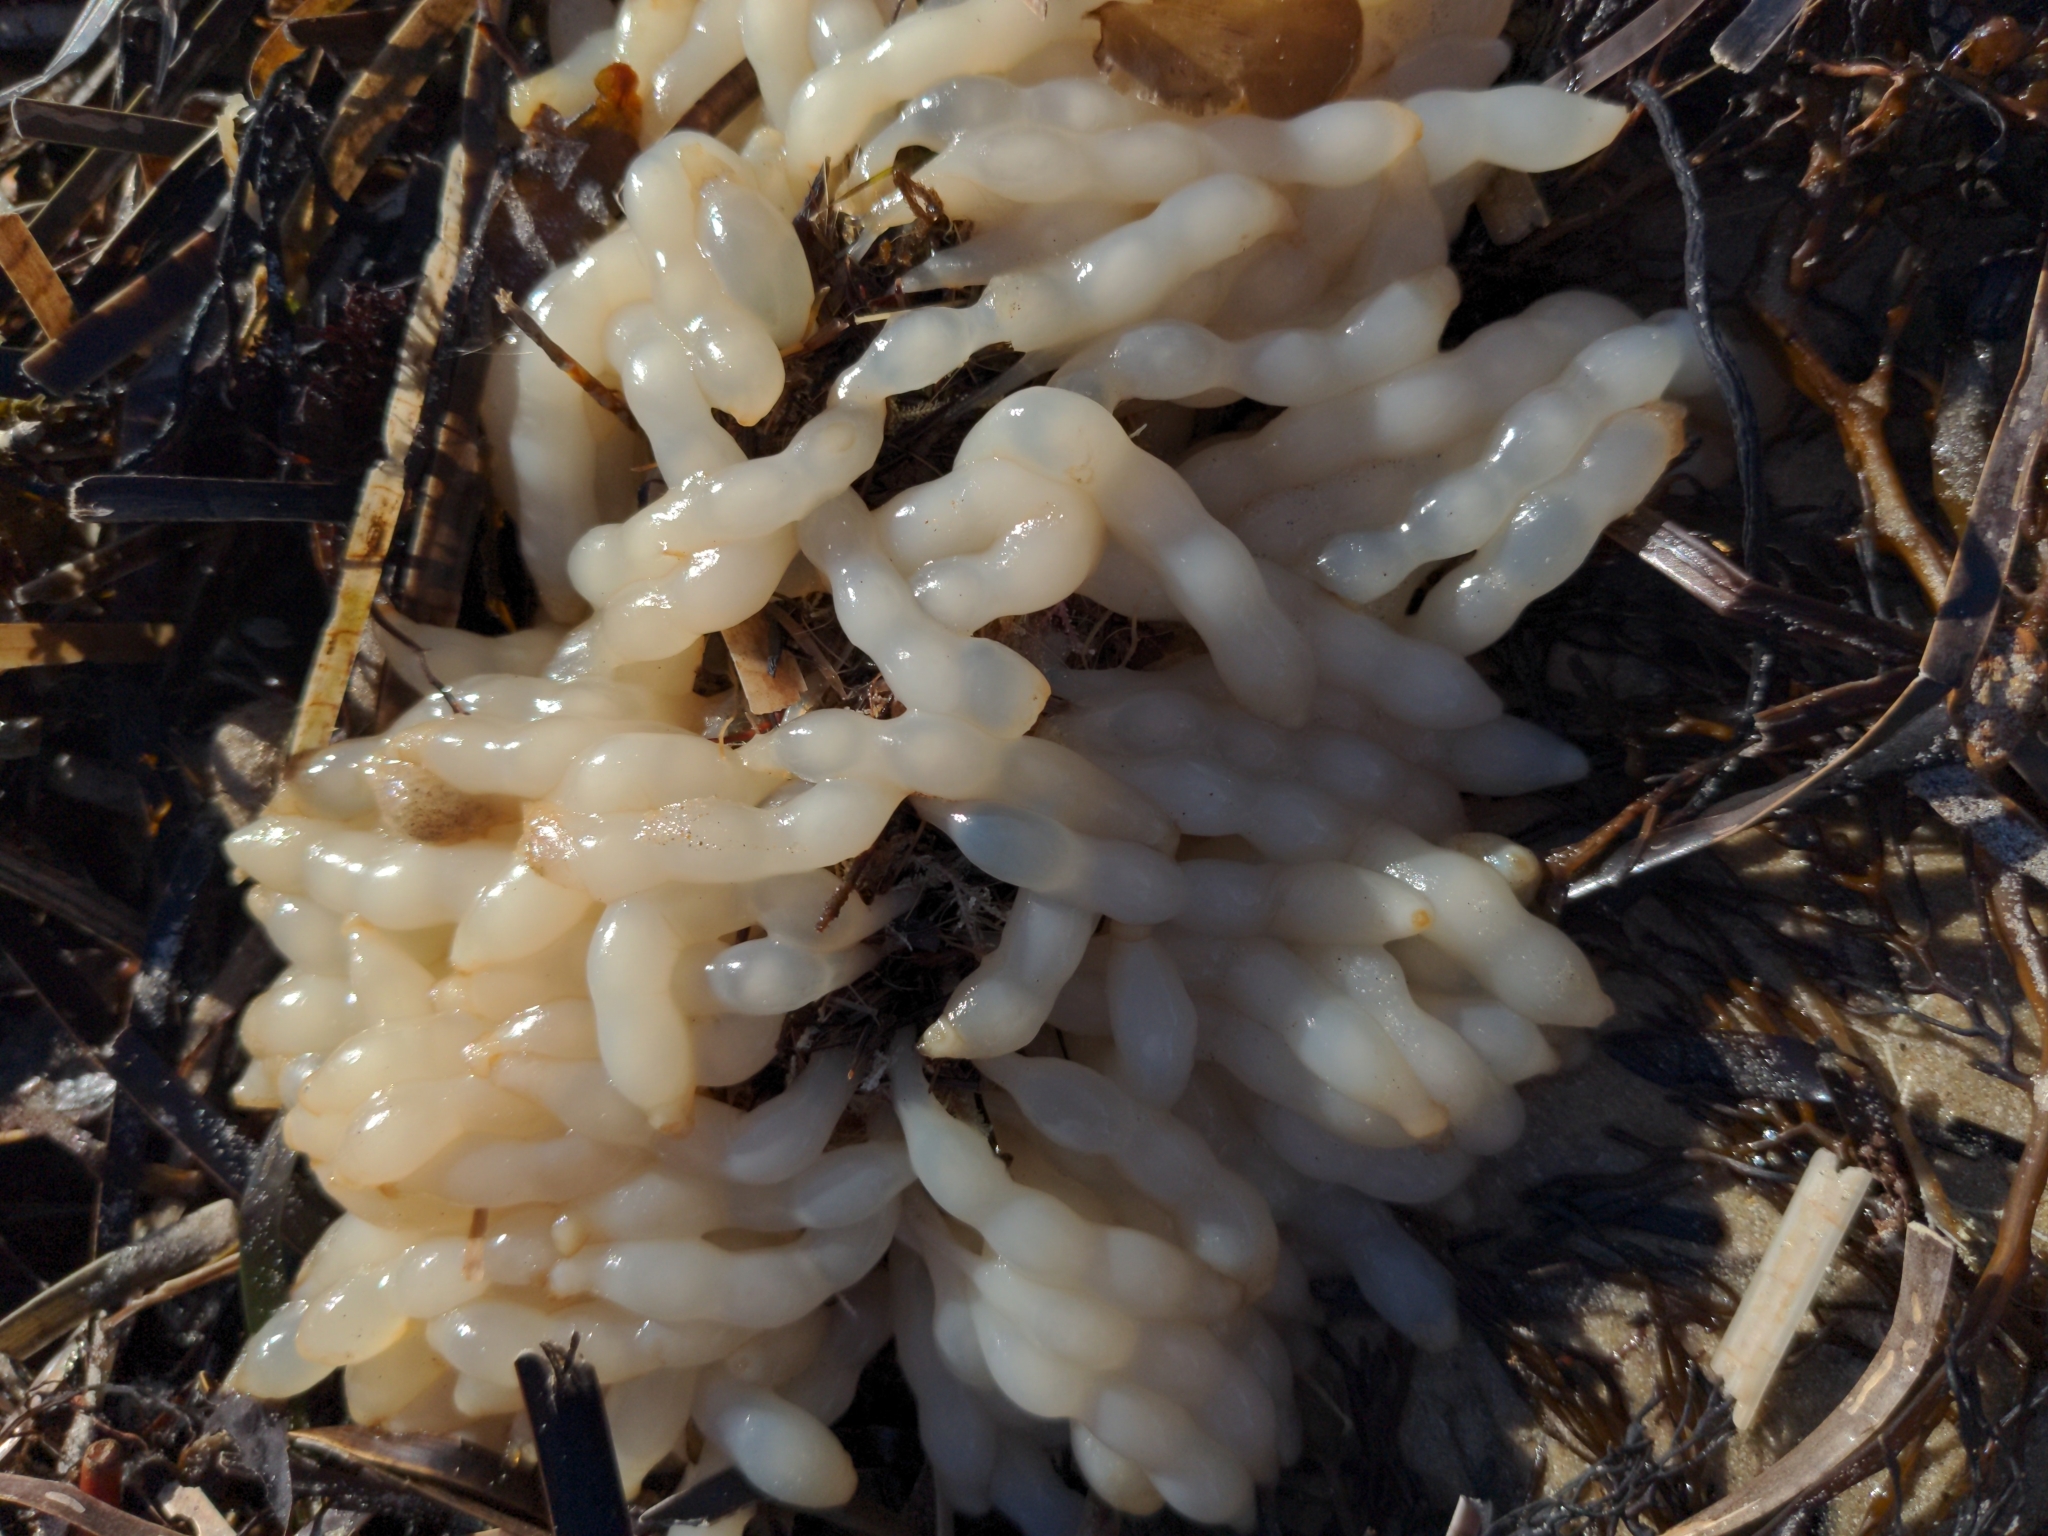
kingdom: Animalia
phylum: Mollusca
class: Cephalopoda
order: Myopsida
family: Loliginidae
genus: Sepioteuthis
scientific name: Sepioteuthis australis
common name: Southern reef squid
